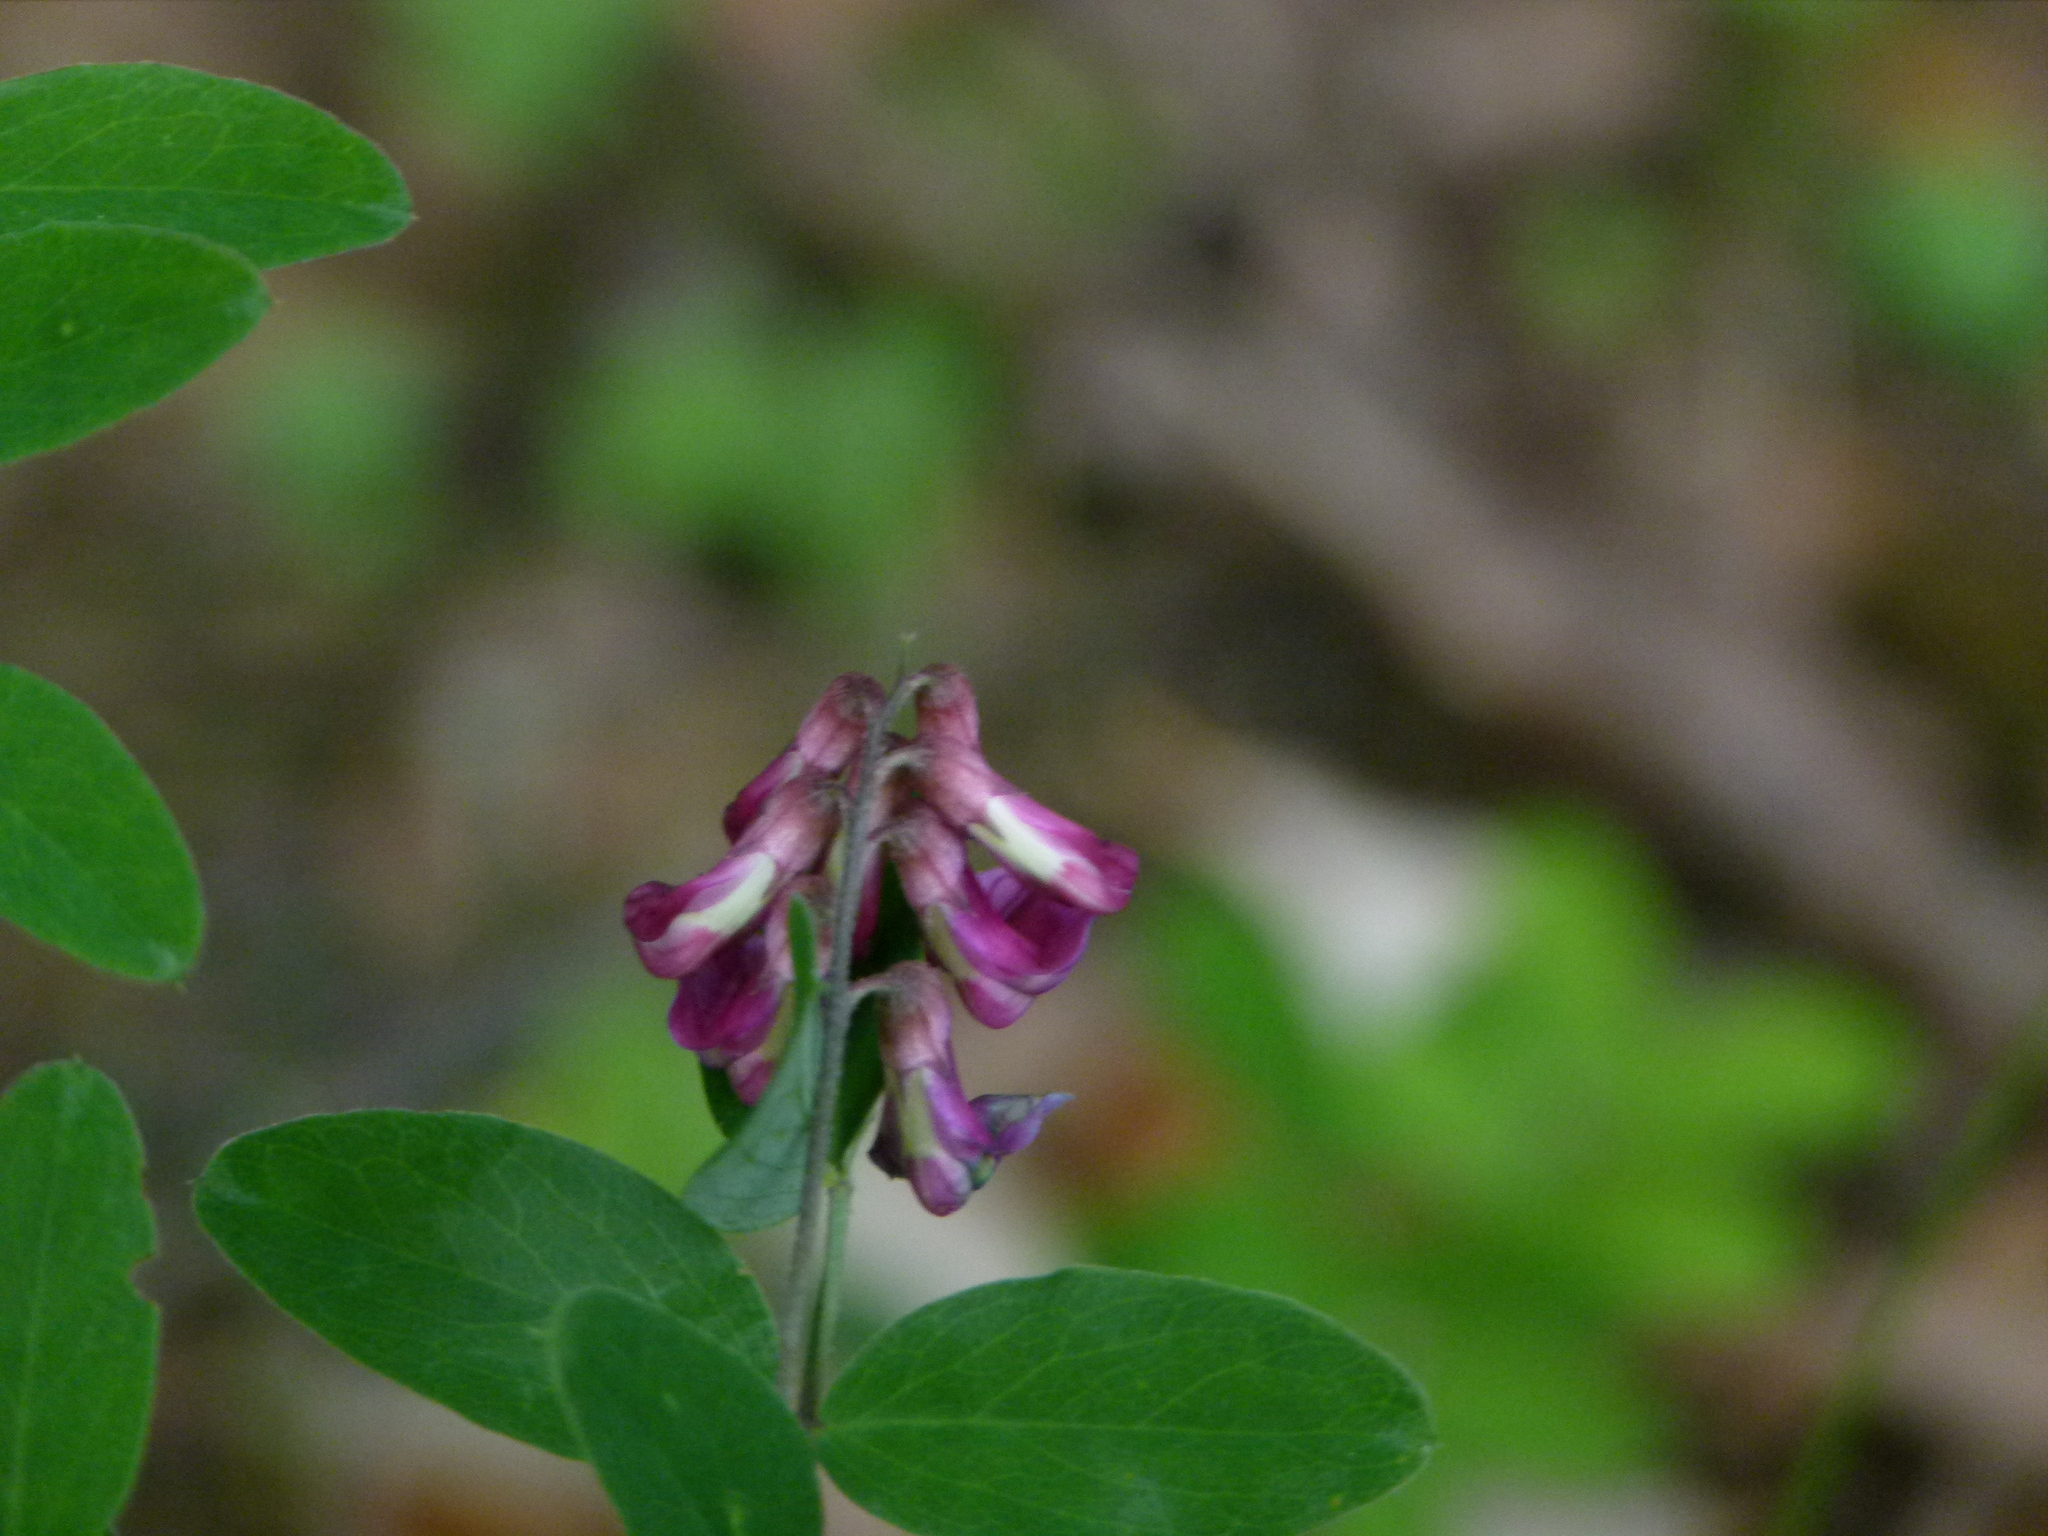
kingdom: Plantae
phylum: Tracheophyta
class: Magnoliopsida
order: Fabales
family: Fabaceae
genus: Lathyrus
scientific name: Lathyrus niger
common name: Black pea
